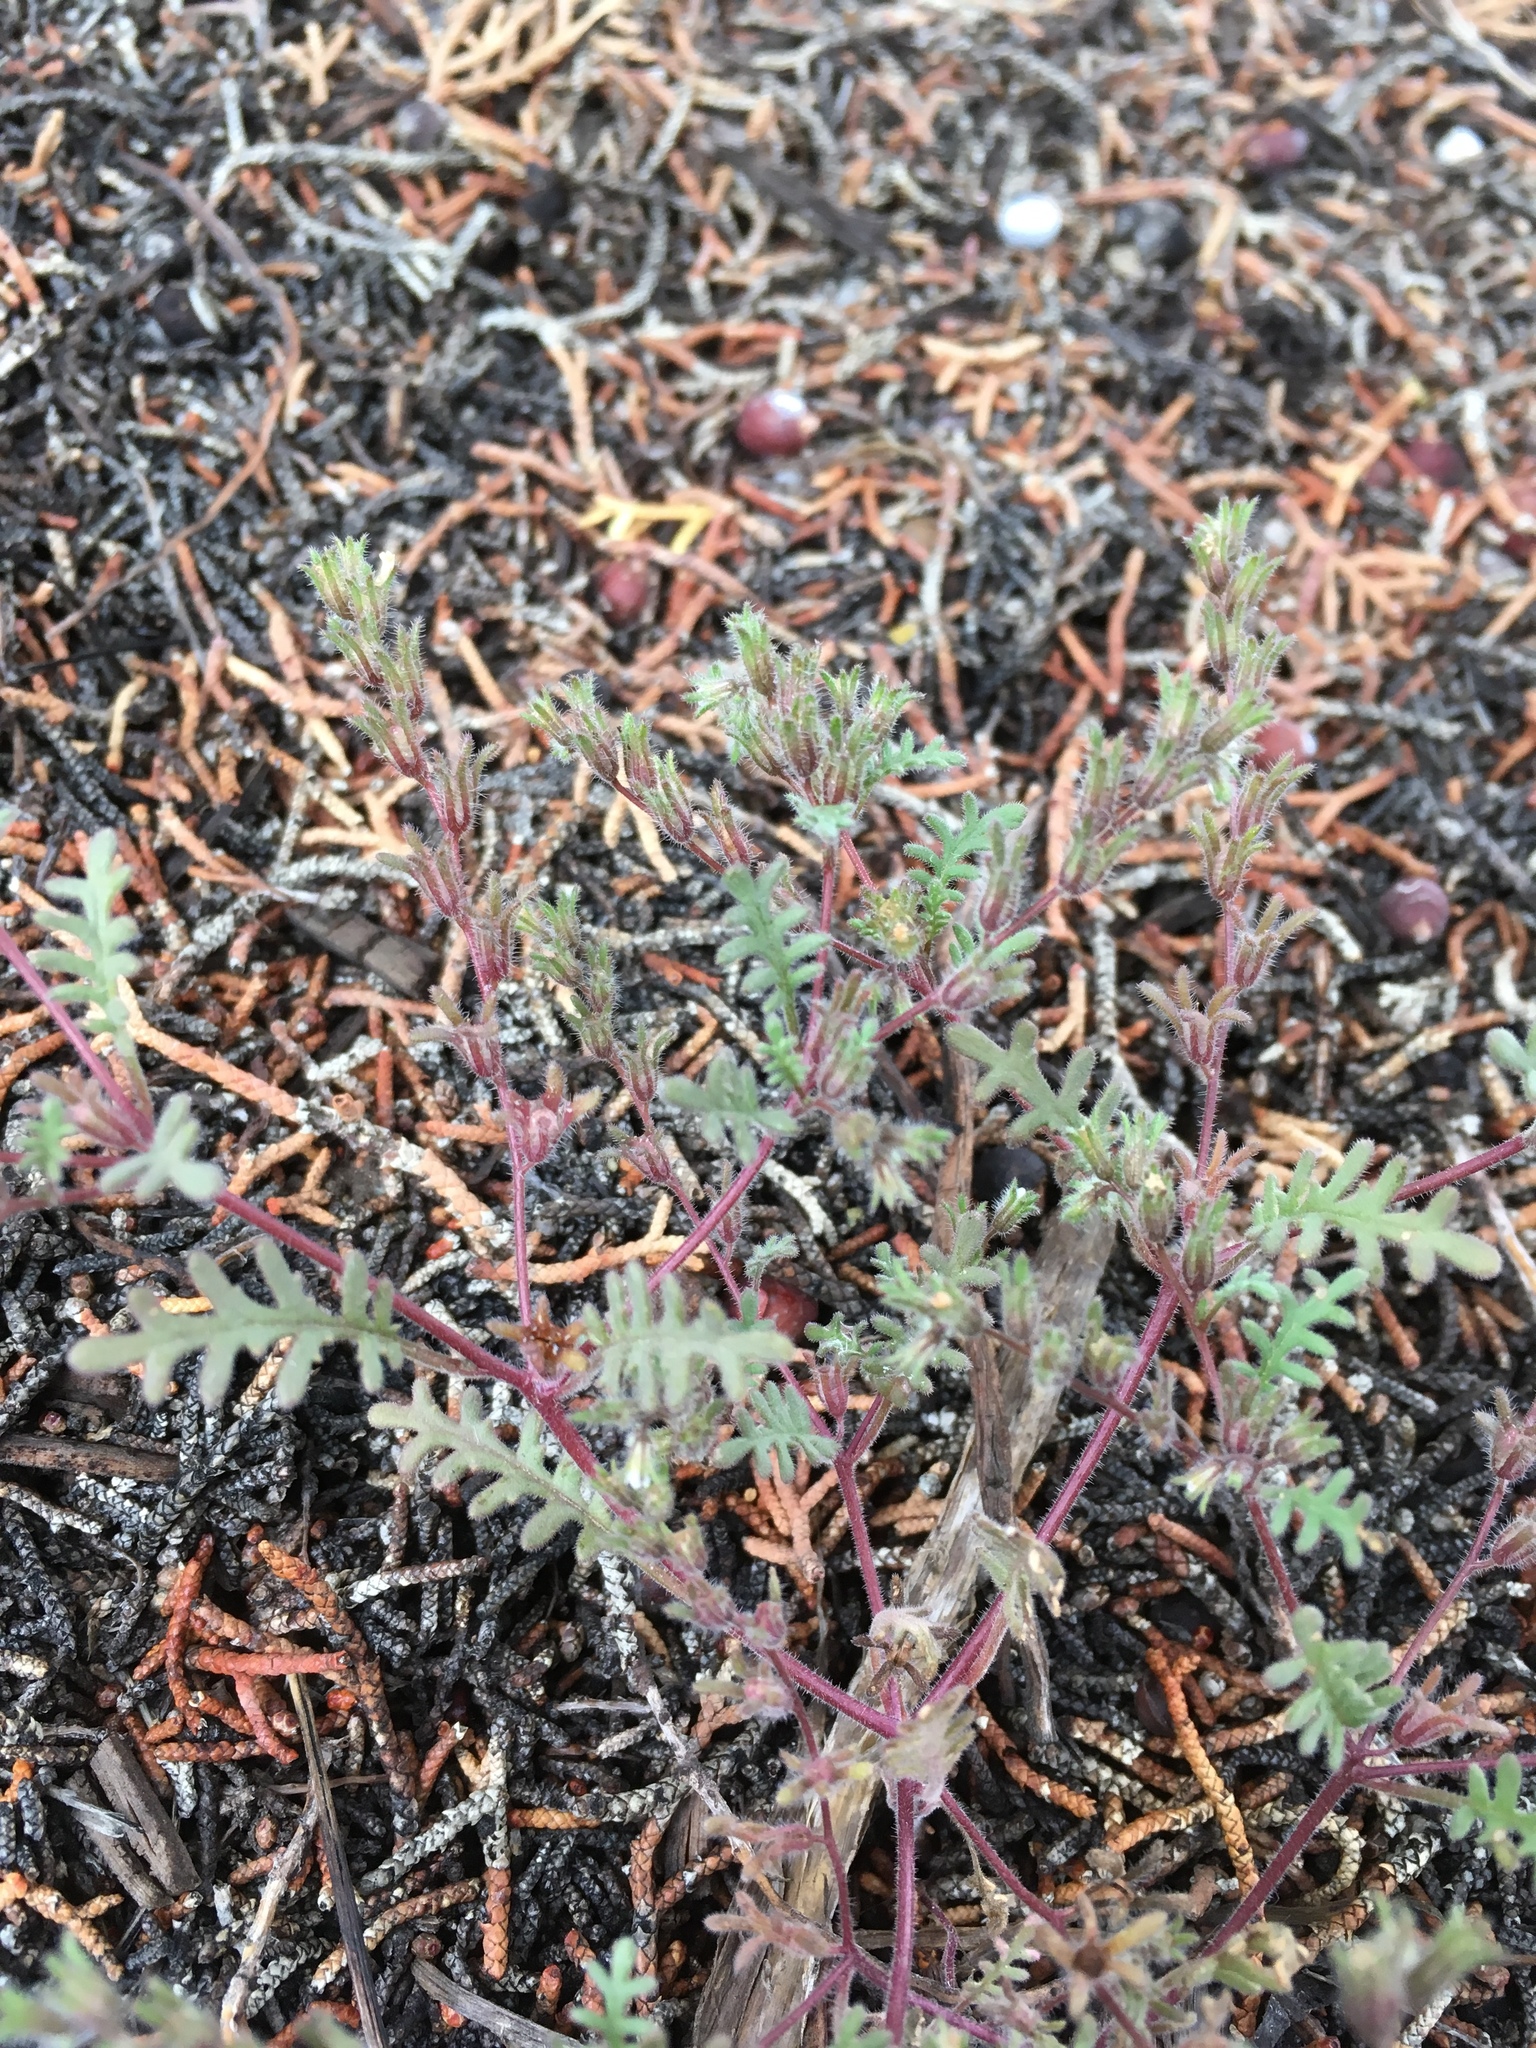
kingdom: Plantae
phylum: Tracheophyta
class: Magnoliopsida
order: Boraginales
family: Hydrophyllaceae
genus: Phacelia
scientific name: Phacelia ivesiana
